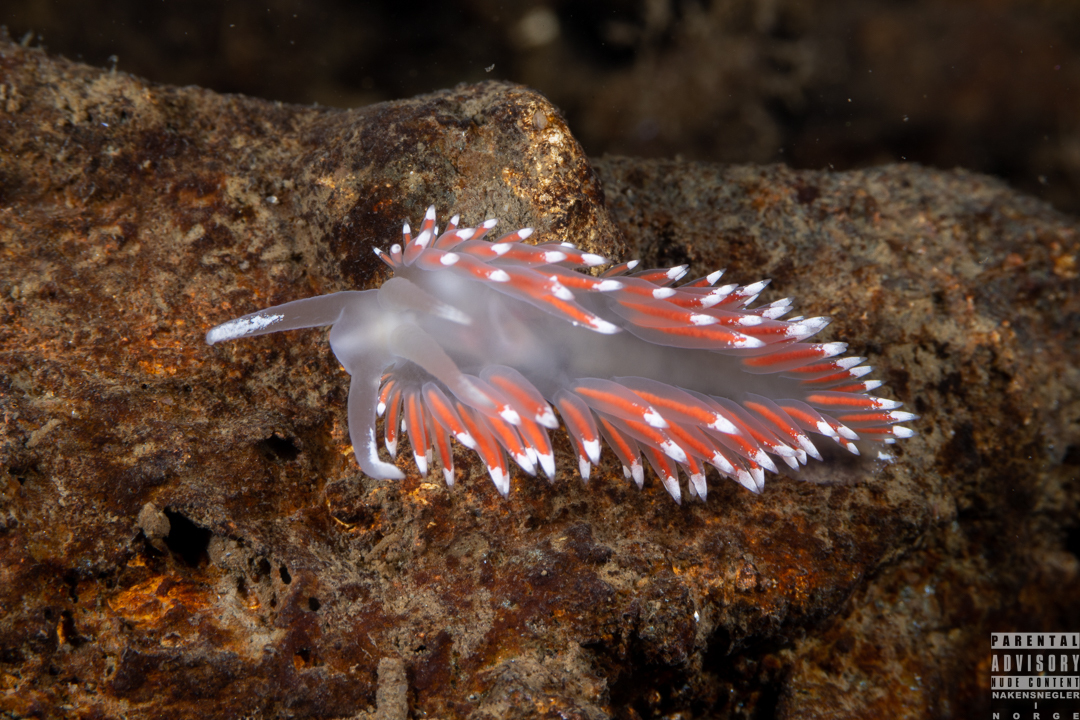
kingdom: Animalia
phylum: Mollusca
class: Gastropoda
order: Nudibranchia
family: Coryphellidae
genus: Coryphella
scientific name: Coryphella browni
